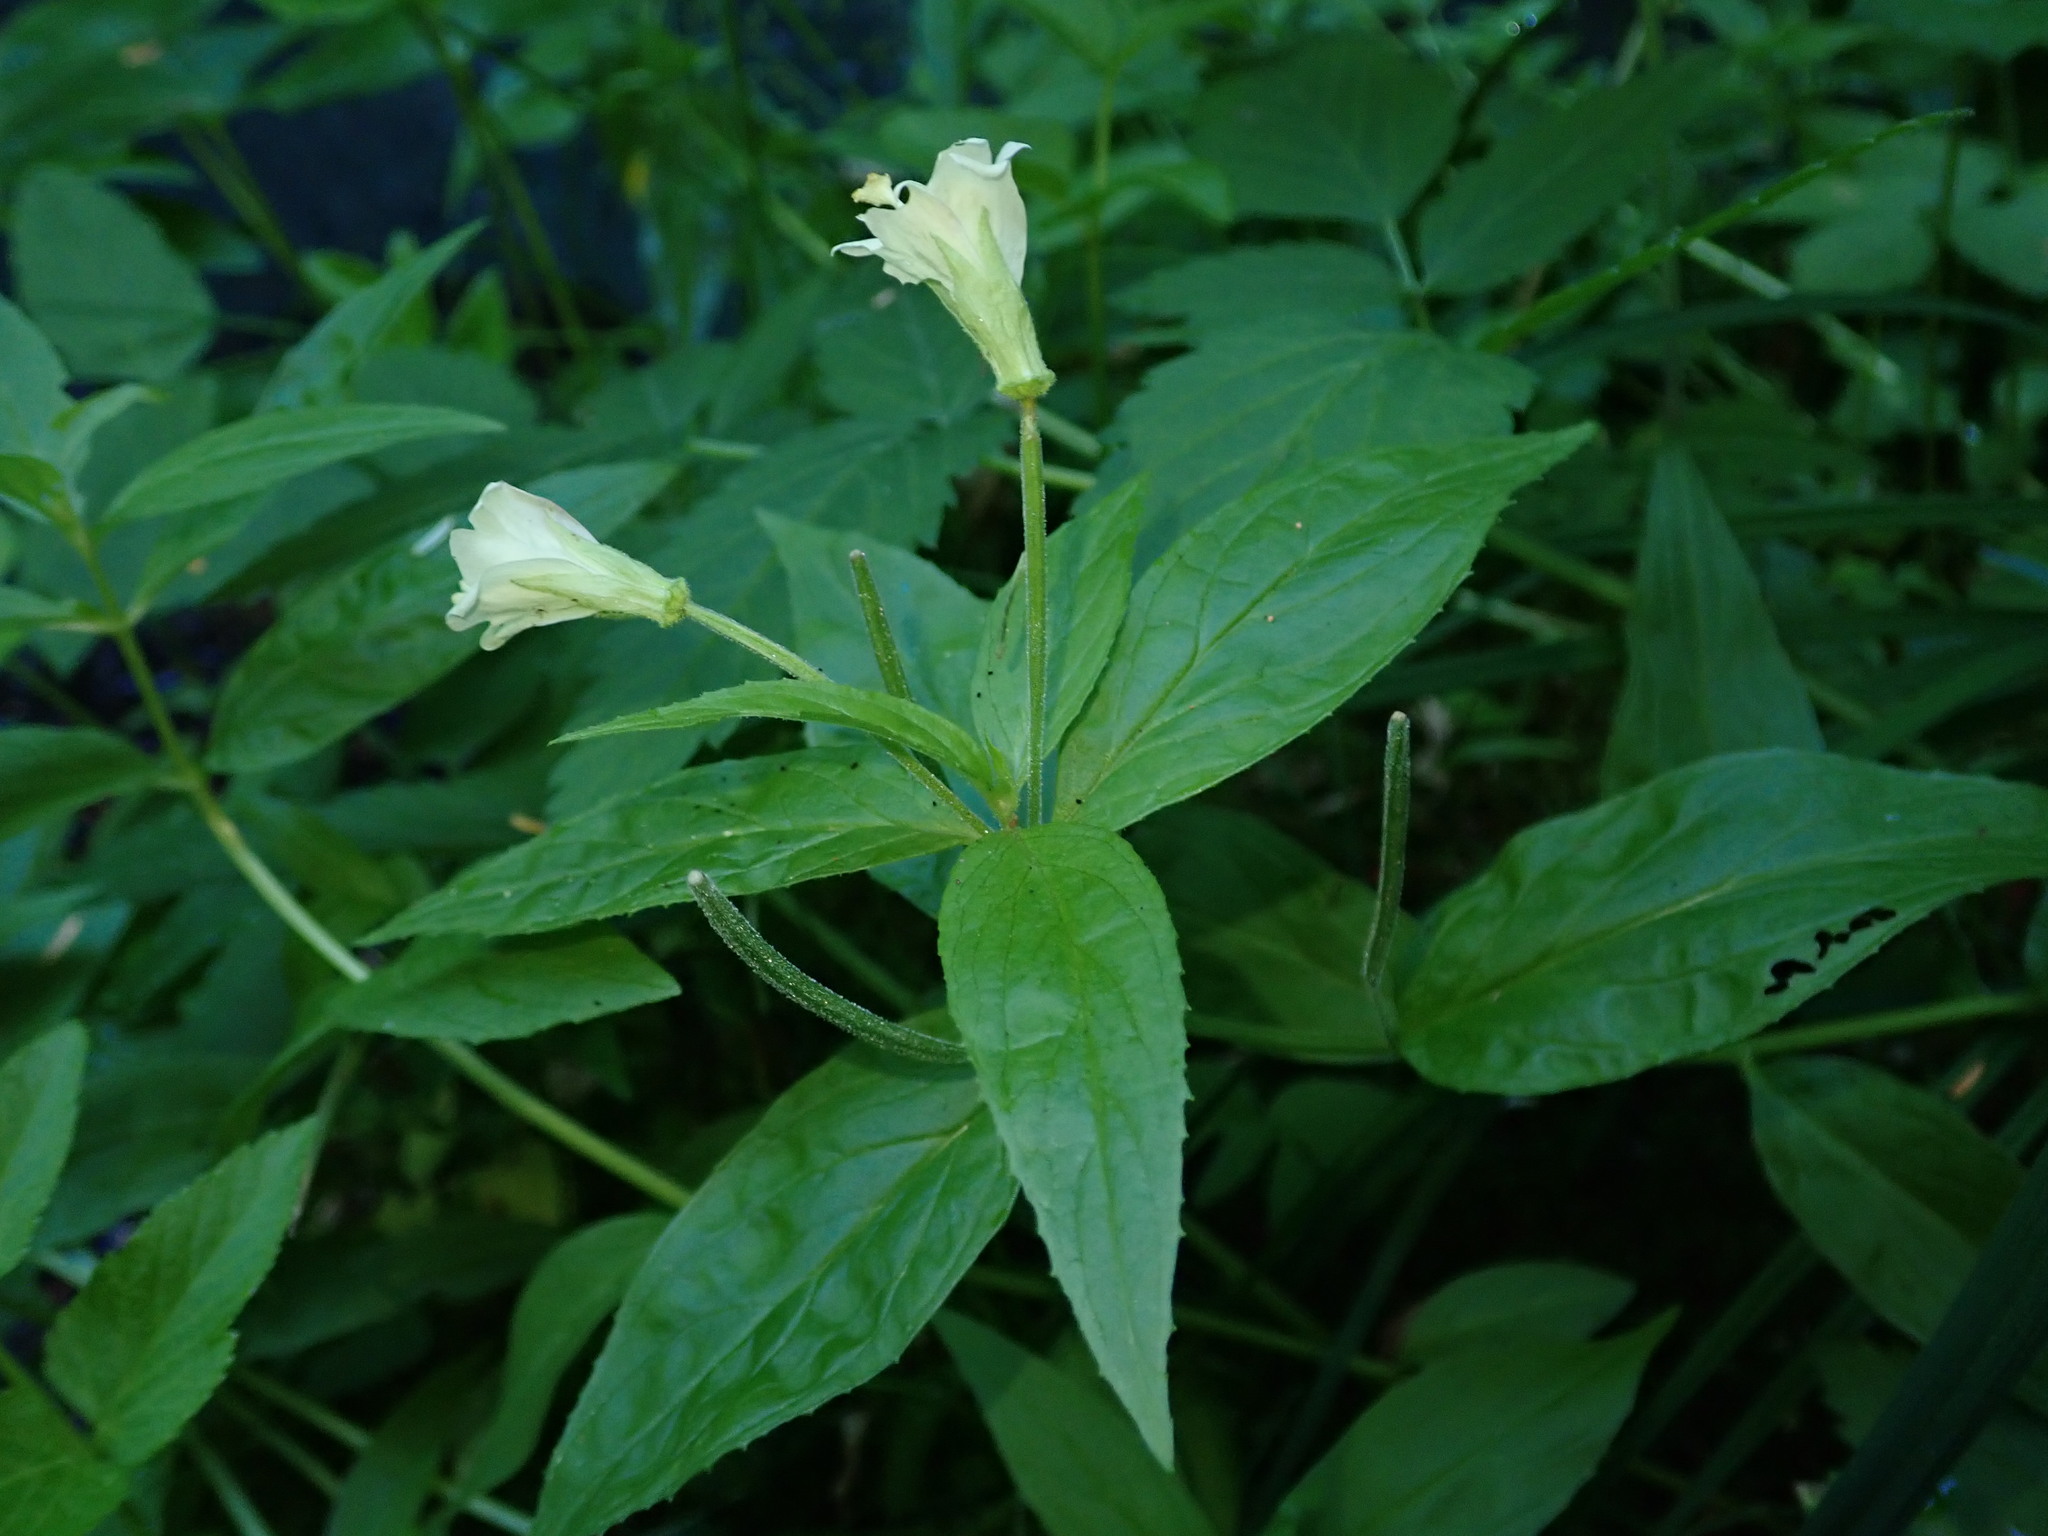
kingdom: Plantae
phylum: Tracheophyta
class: Magnoliopsida
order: Myrtales
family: Onagraceae
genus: Epilobium
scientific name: Epilobium luteum
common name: Yellow willowherb
